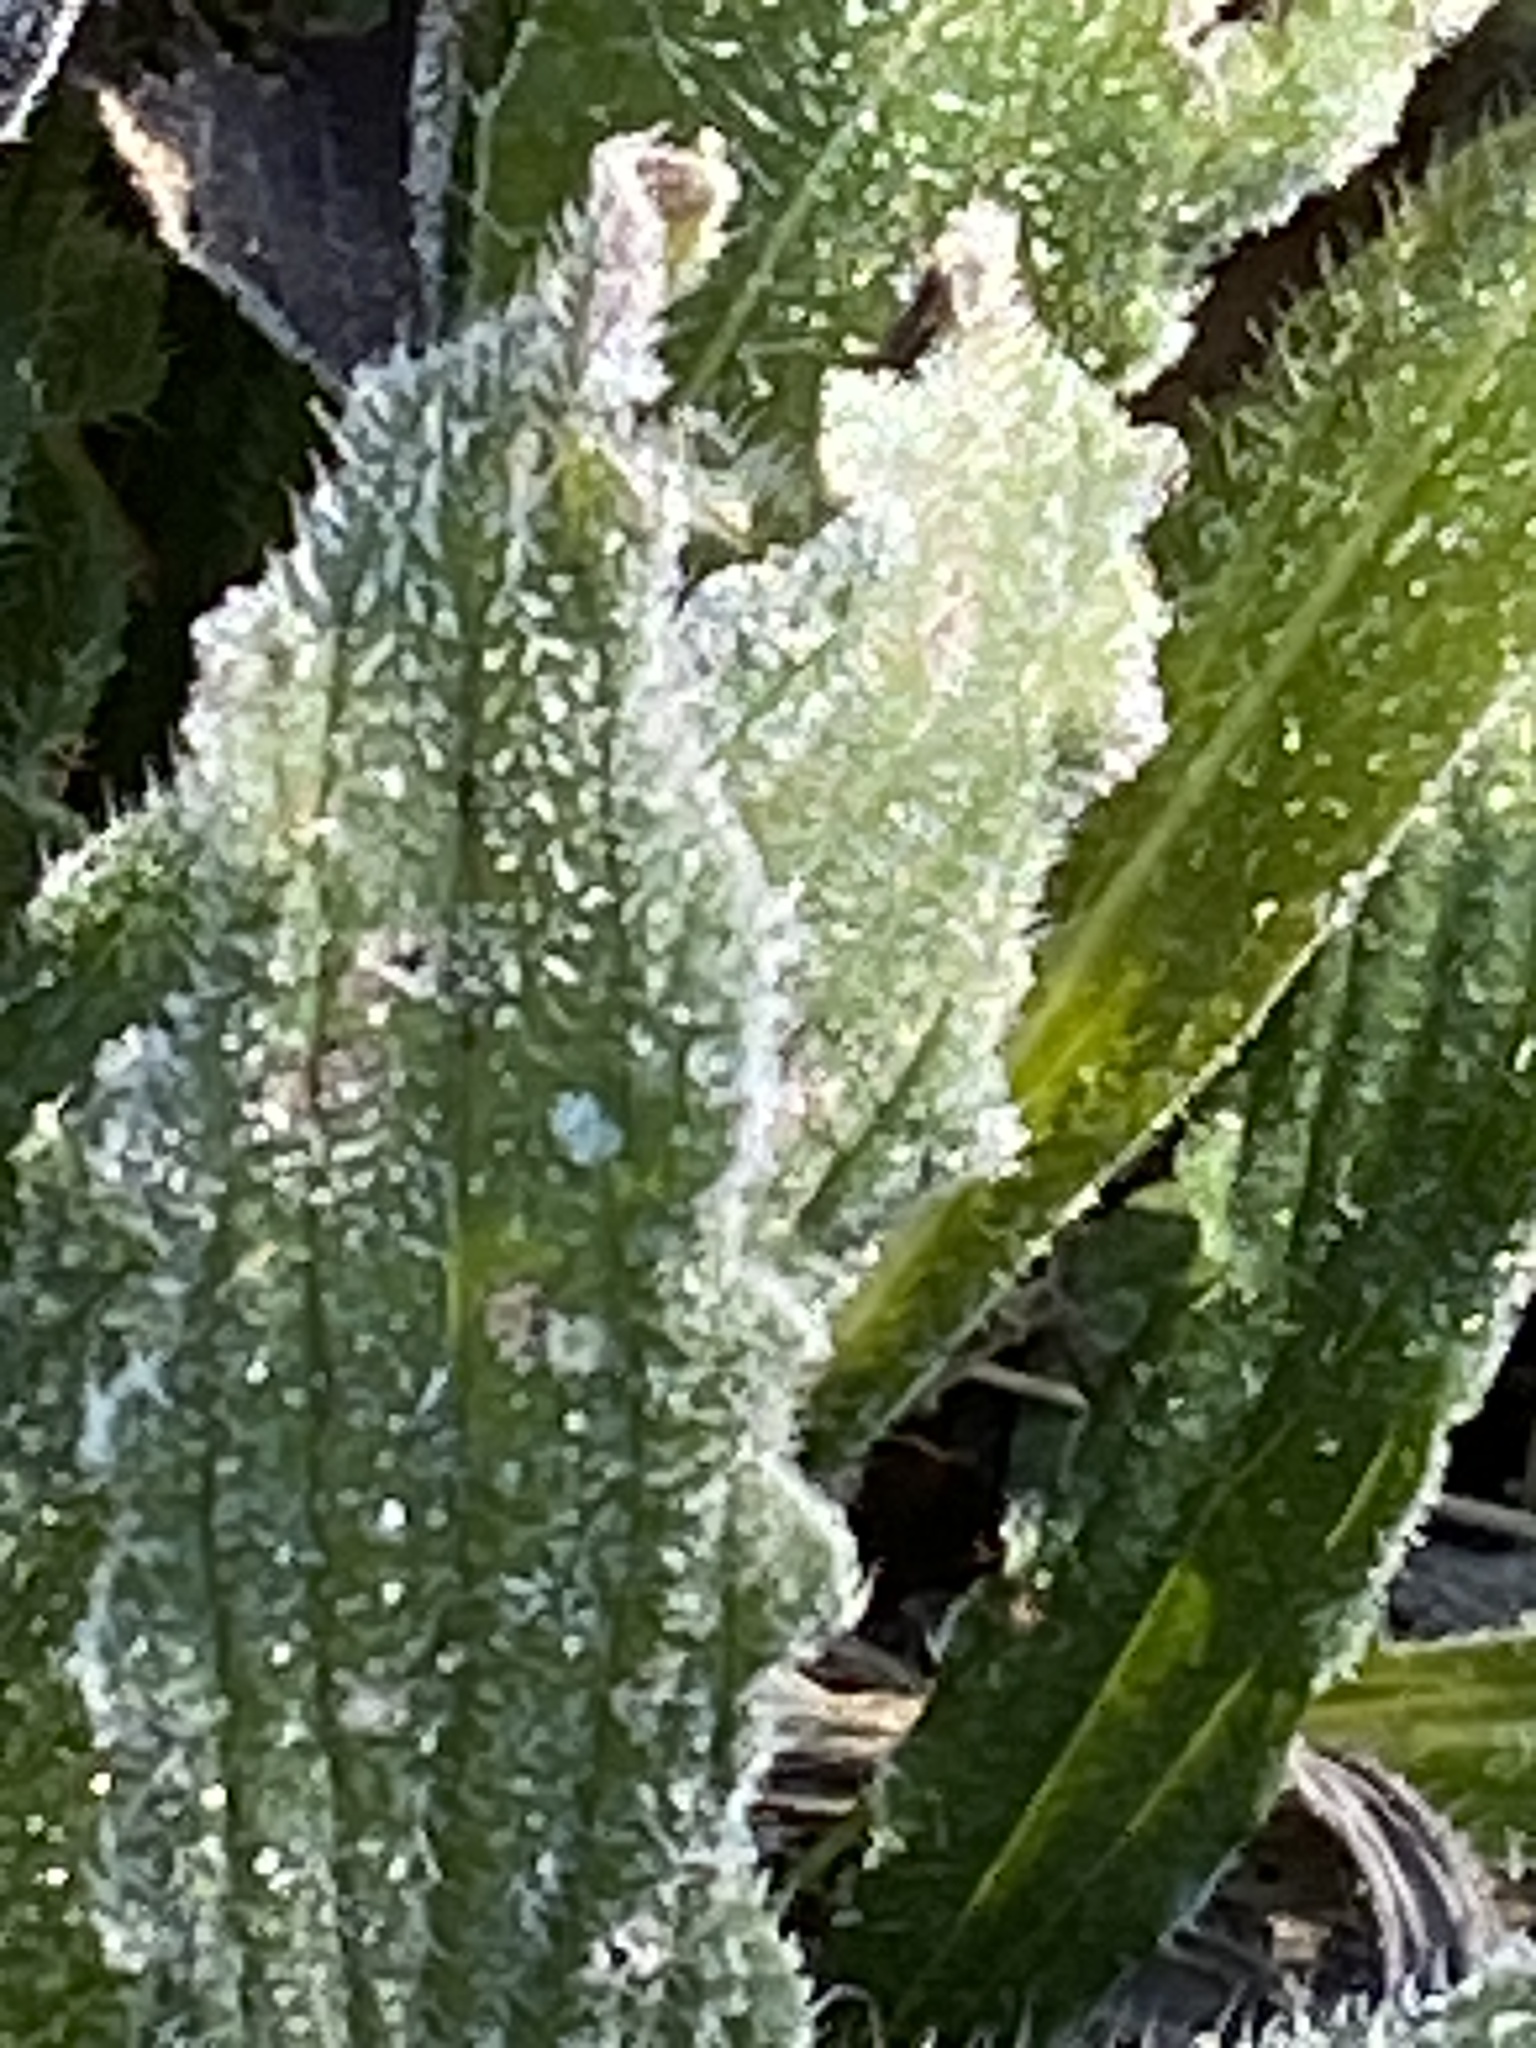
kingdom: Plantae
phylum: Tracheophyta
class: Magnoliopsida
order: Boraginales
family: Boraginaceae
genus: Lithospermum
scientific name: Lithospermum caroliniense
